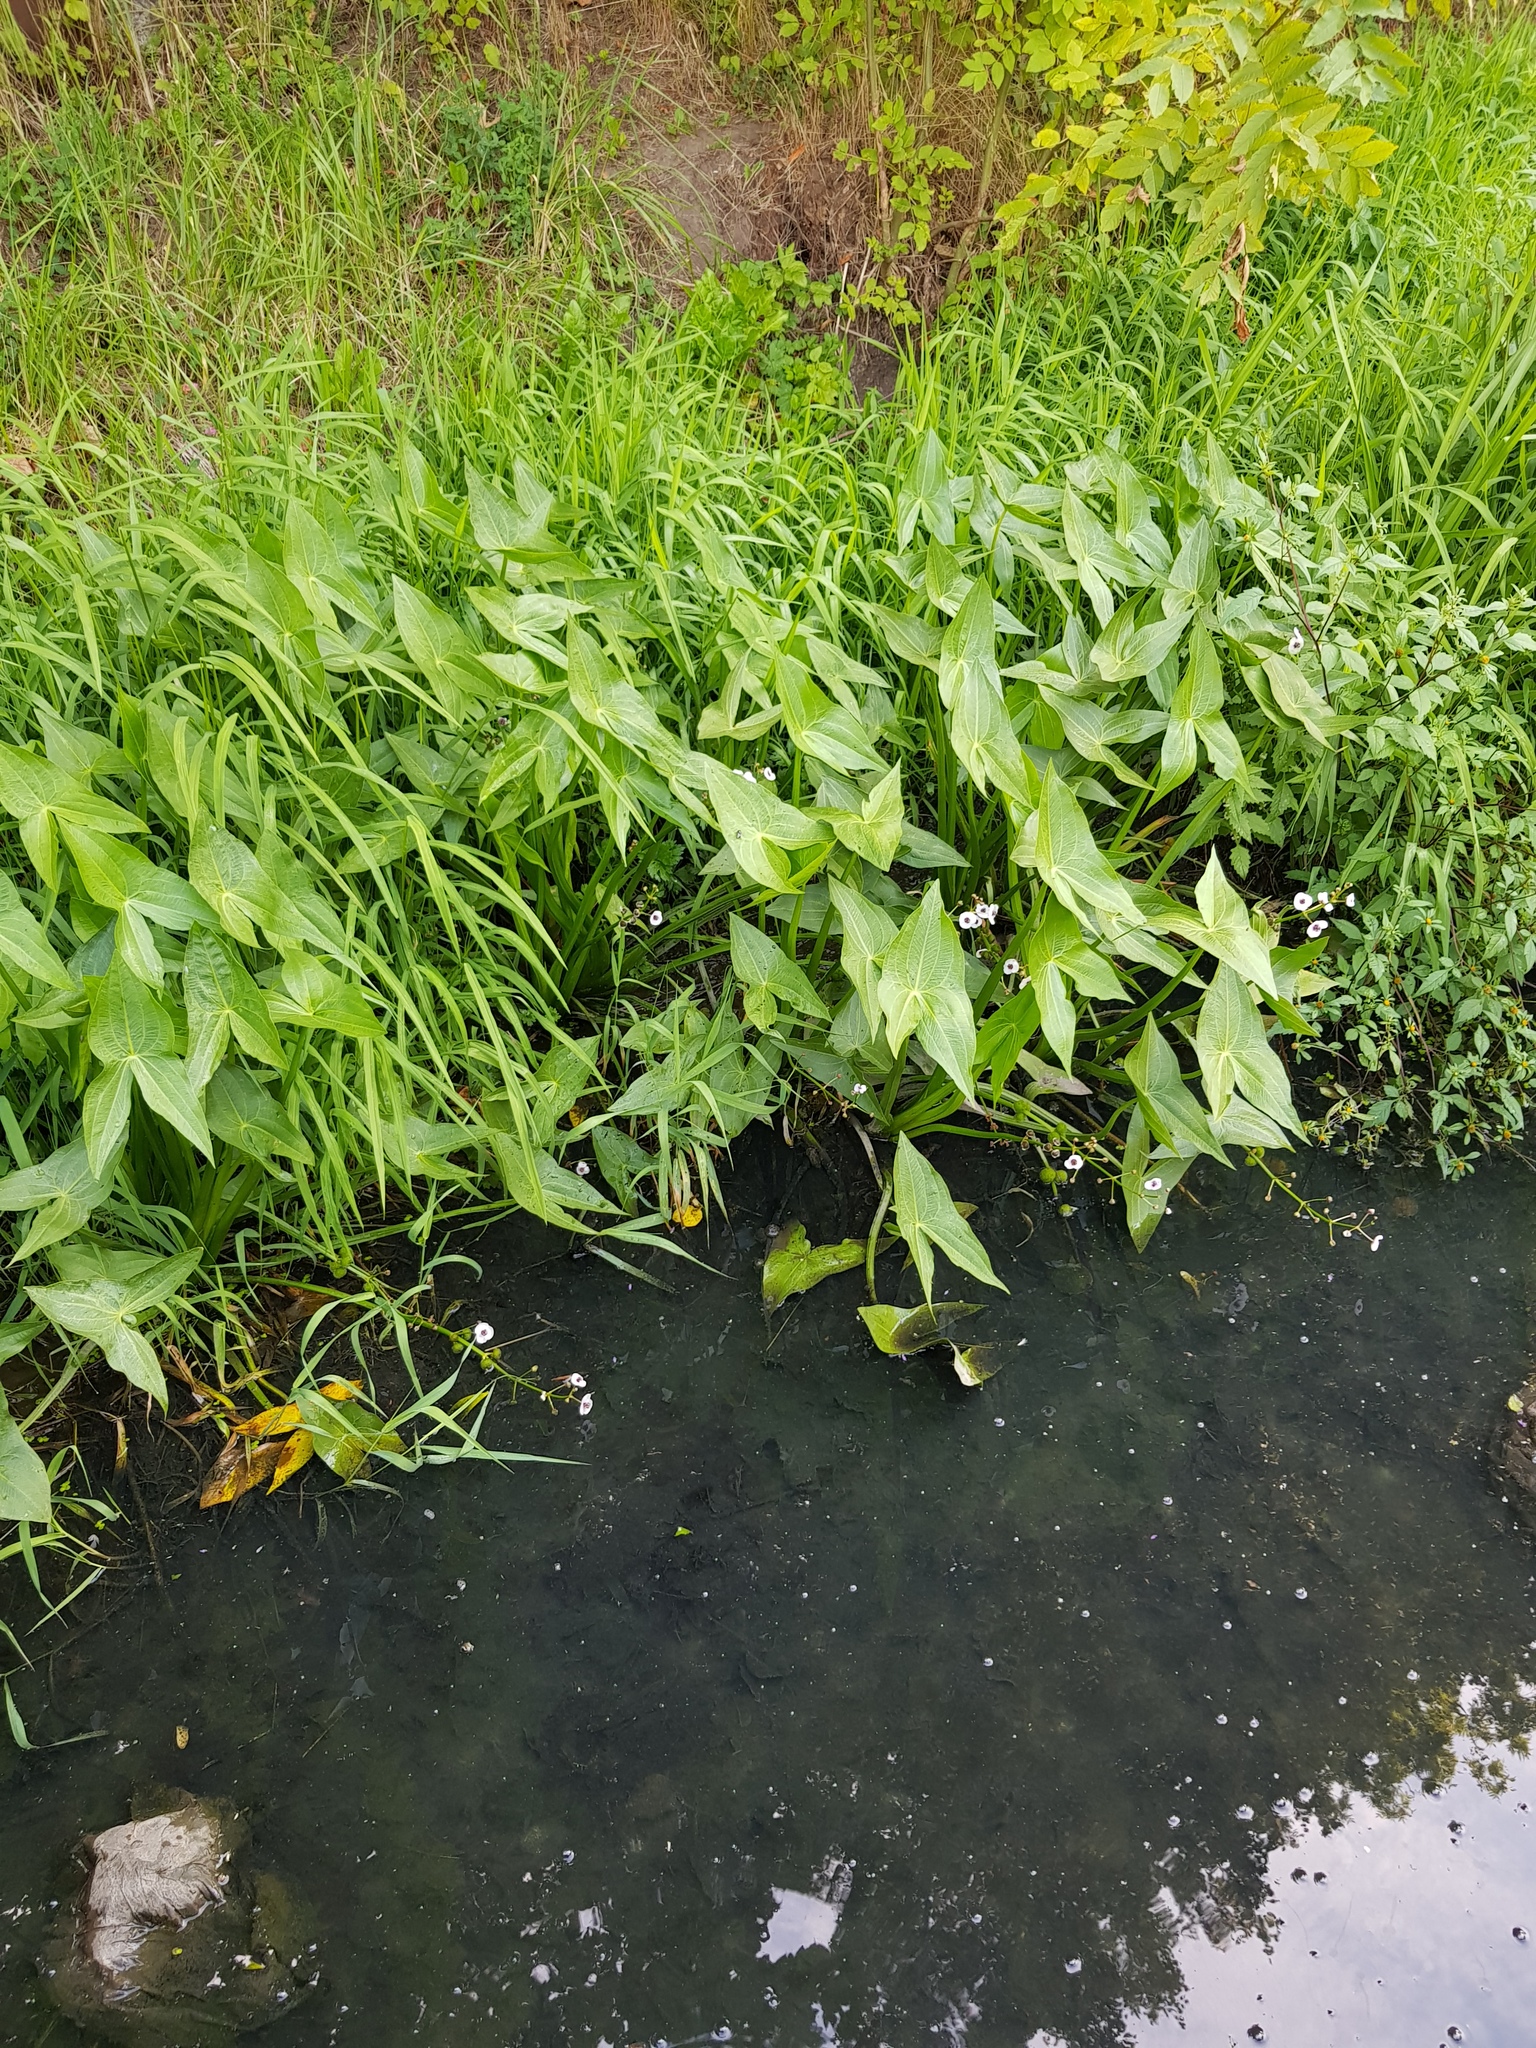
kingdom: Plantae
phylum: Tracheophyta
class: Liliopsida
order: Alismatales
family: Alismataceae
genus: Sagittaria
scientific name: Sagittaria sagittifolia
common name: Arrowhead
